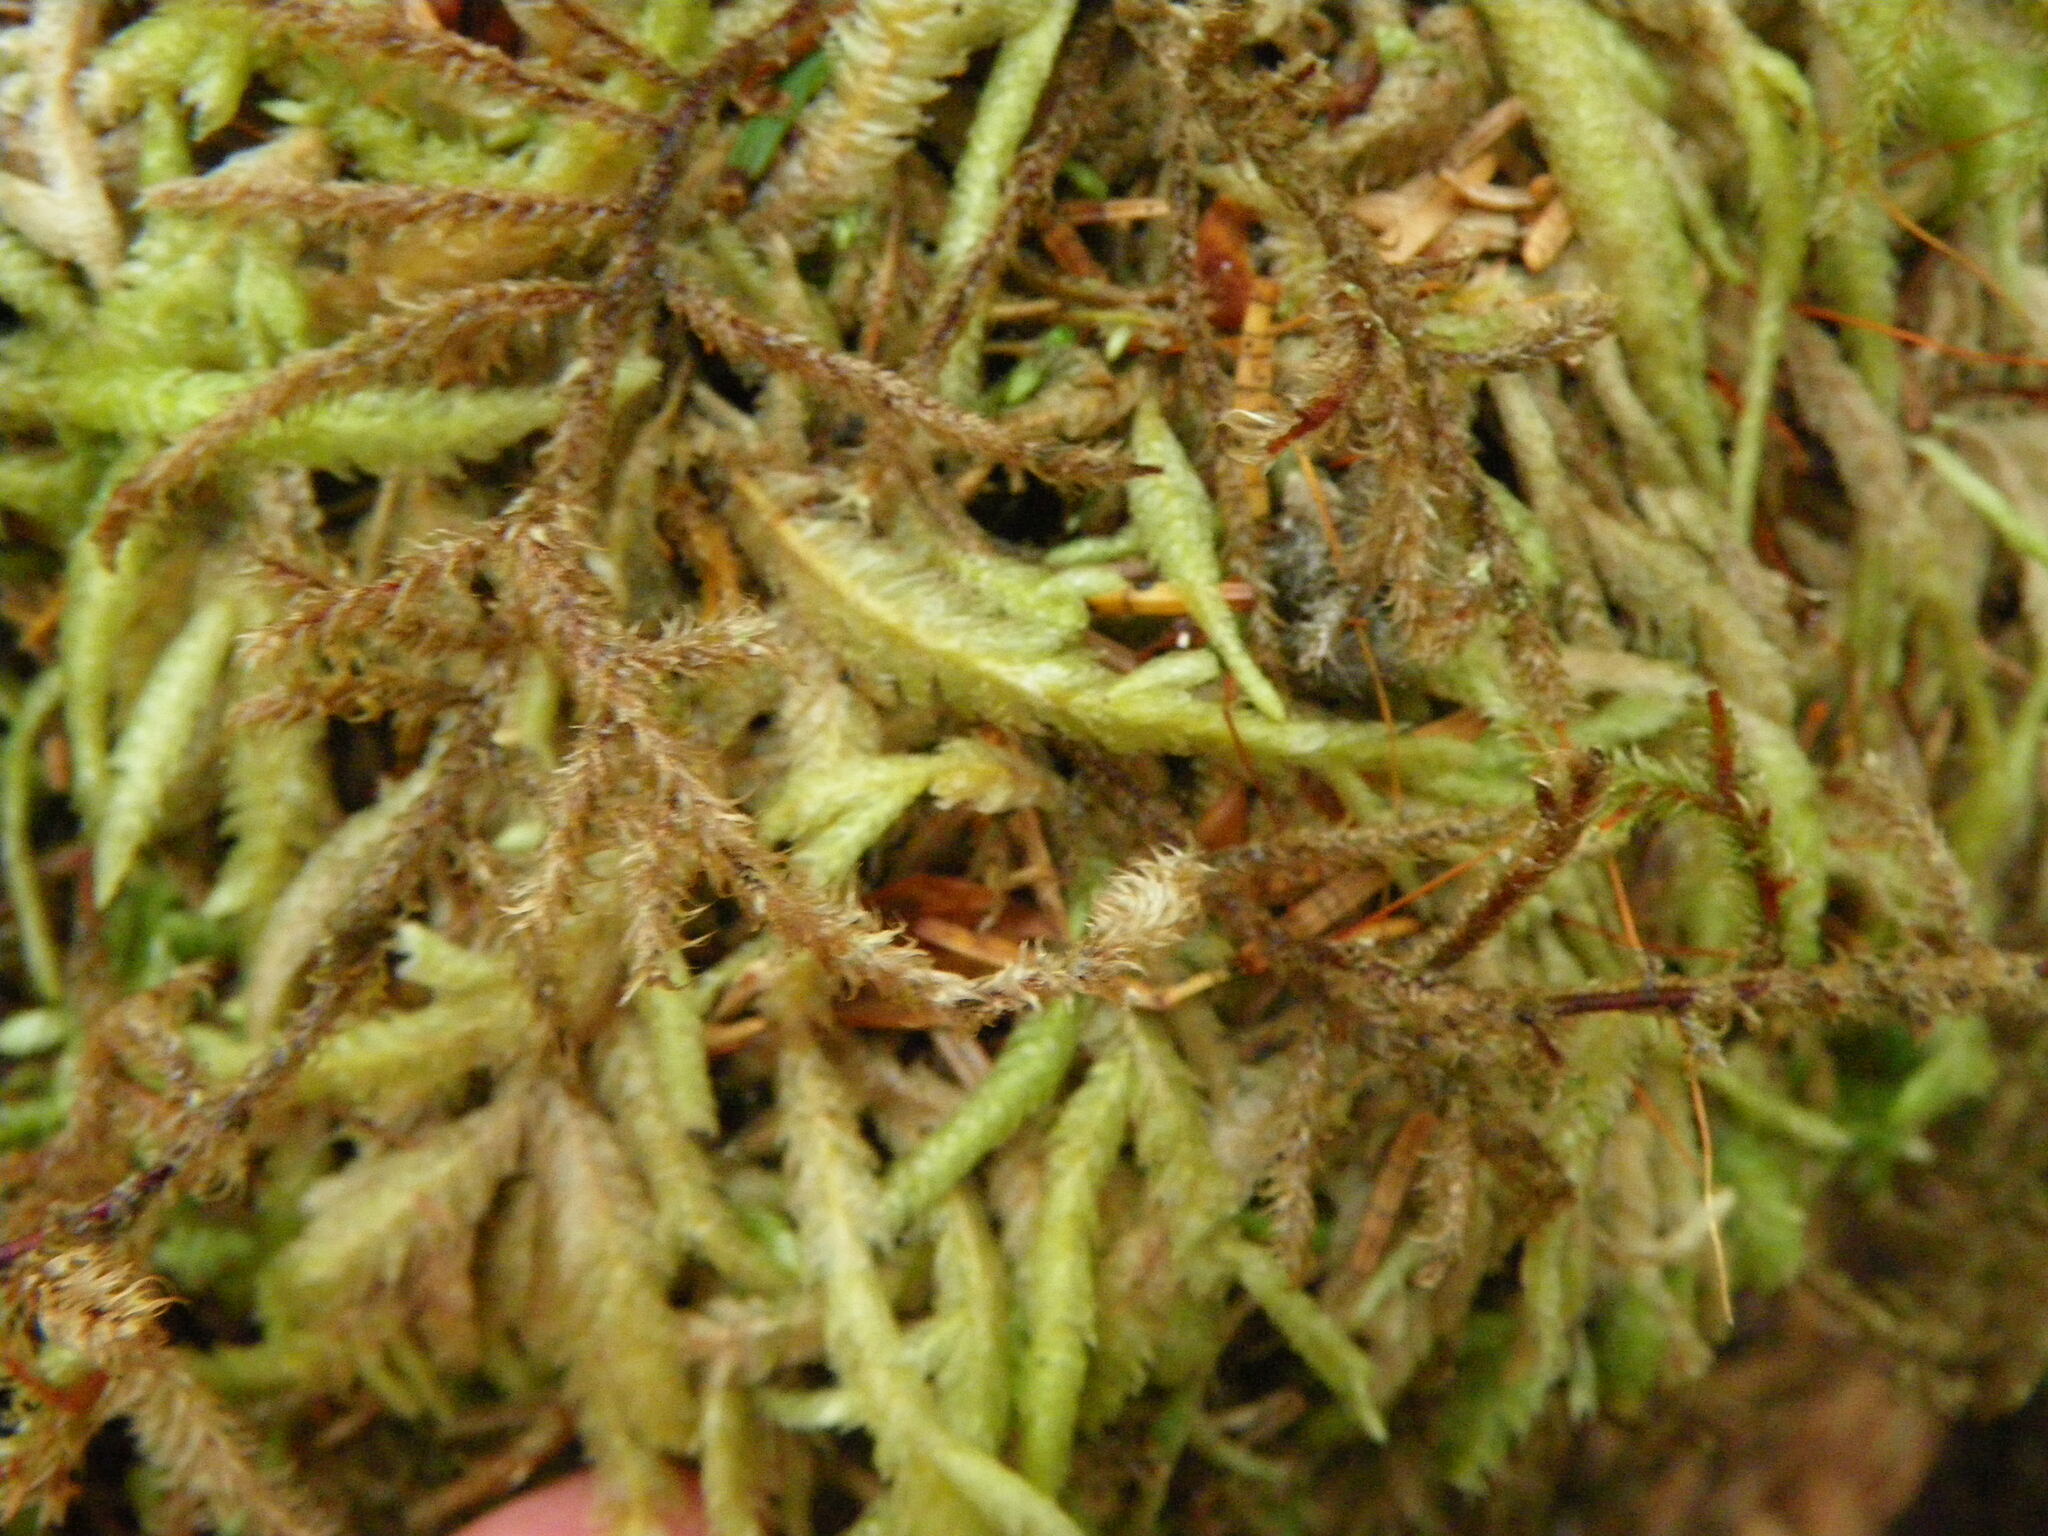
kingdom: Plantae
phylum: Bryophyta
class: Bryopsida
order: Hypnales
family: Plagiotheciaceae
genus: Plagiothecium
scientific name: Plagiothecium undulatum
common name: Waved silk-moss
